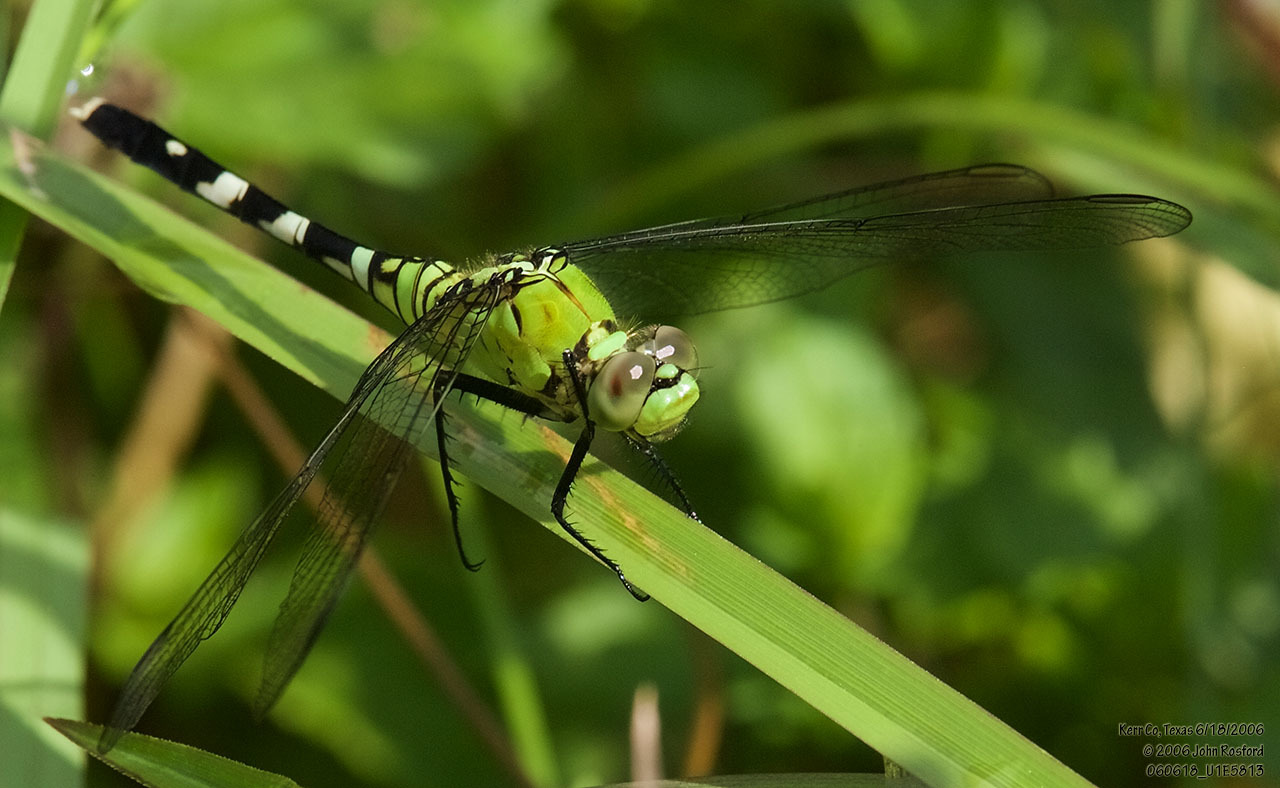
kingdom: Animalia
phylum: Arthropoda
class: Insecta
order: Odonata
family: Libellulidae
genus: Erythemis
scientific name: Erythemis simplicicollis
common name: Eastern pondhawk
